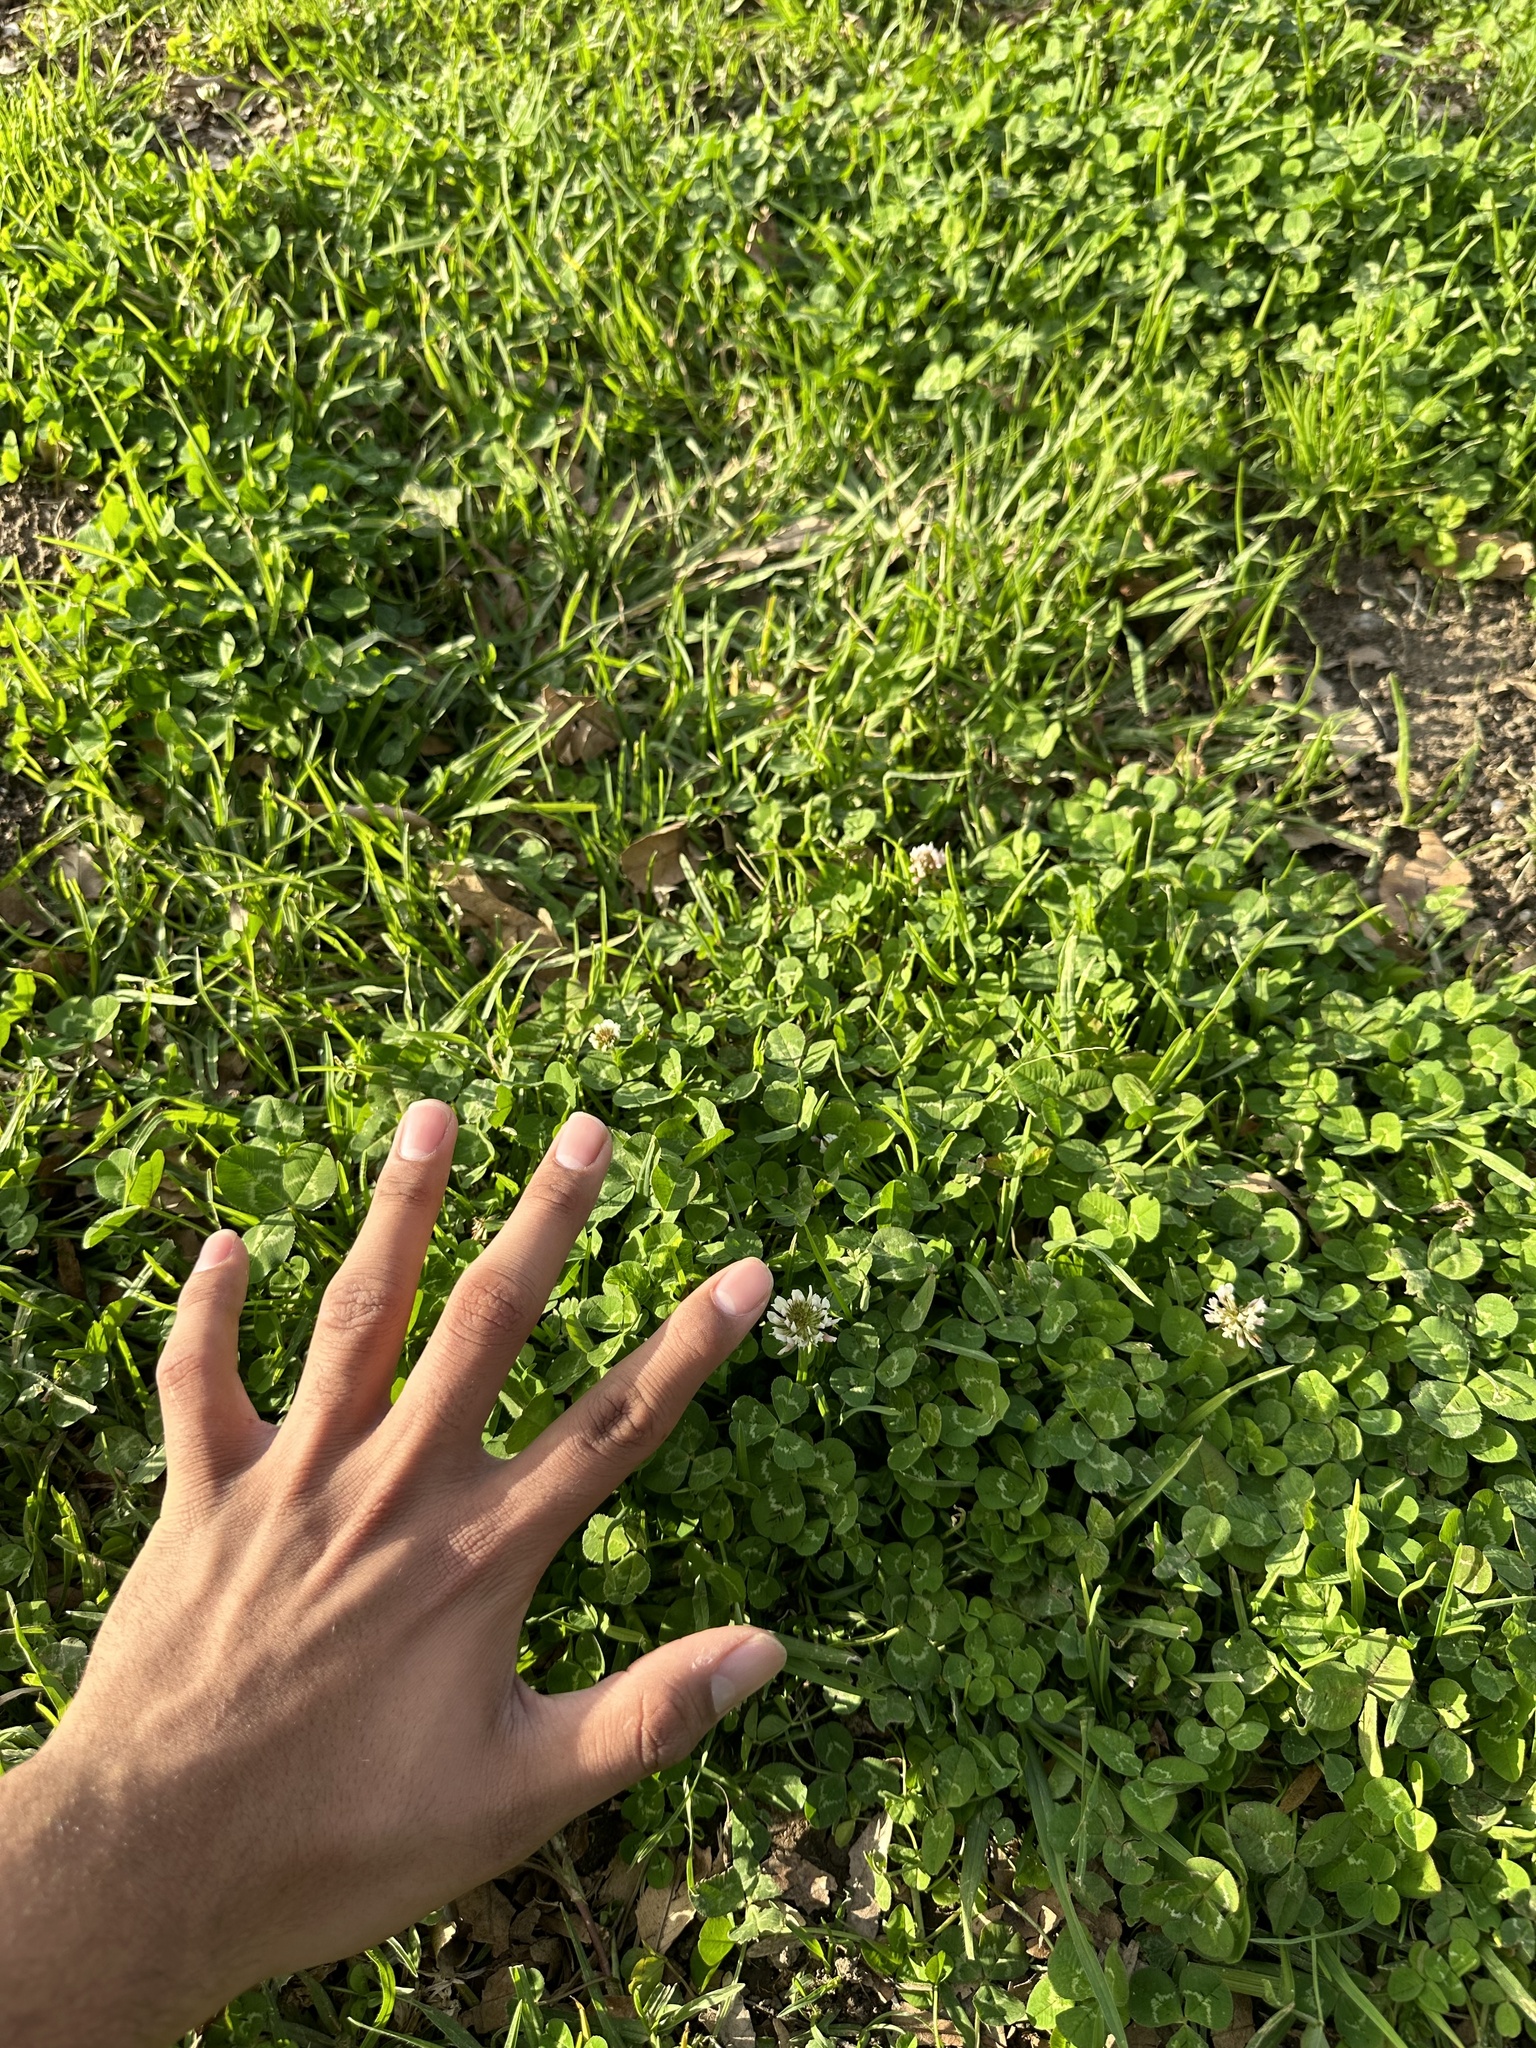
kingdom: Plantae
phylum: Tracheophyta
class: Magnoliopsida
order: Fabales
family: Fabaceae
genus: Trifolium
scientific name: Trifolium repens
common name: White clover
